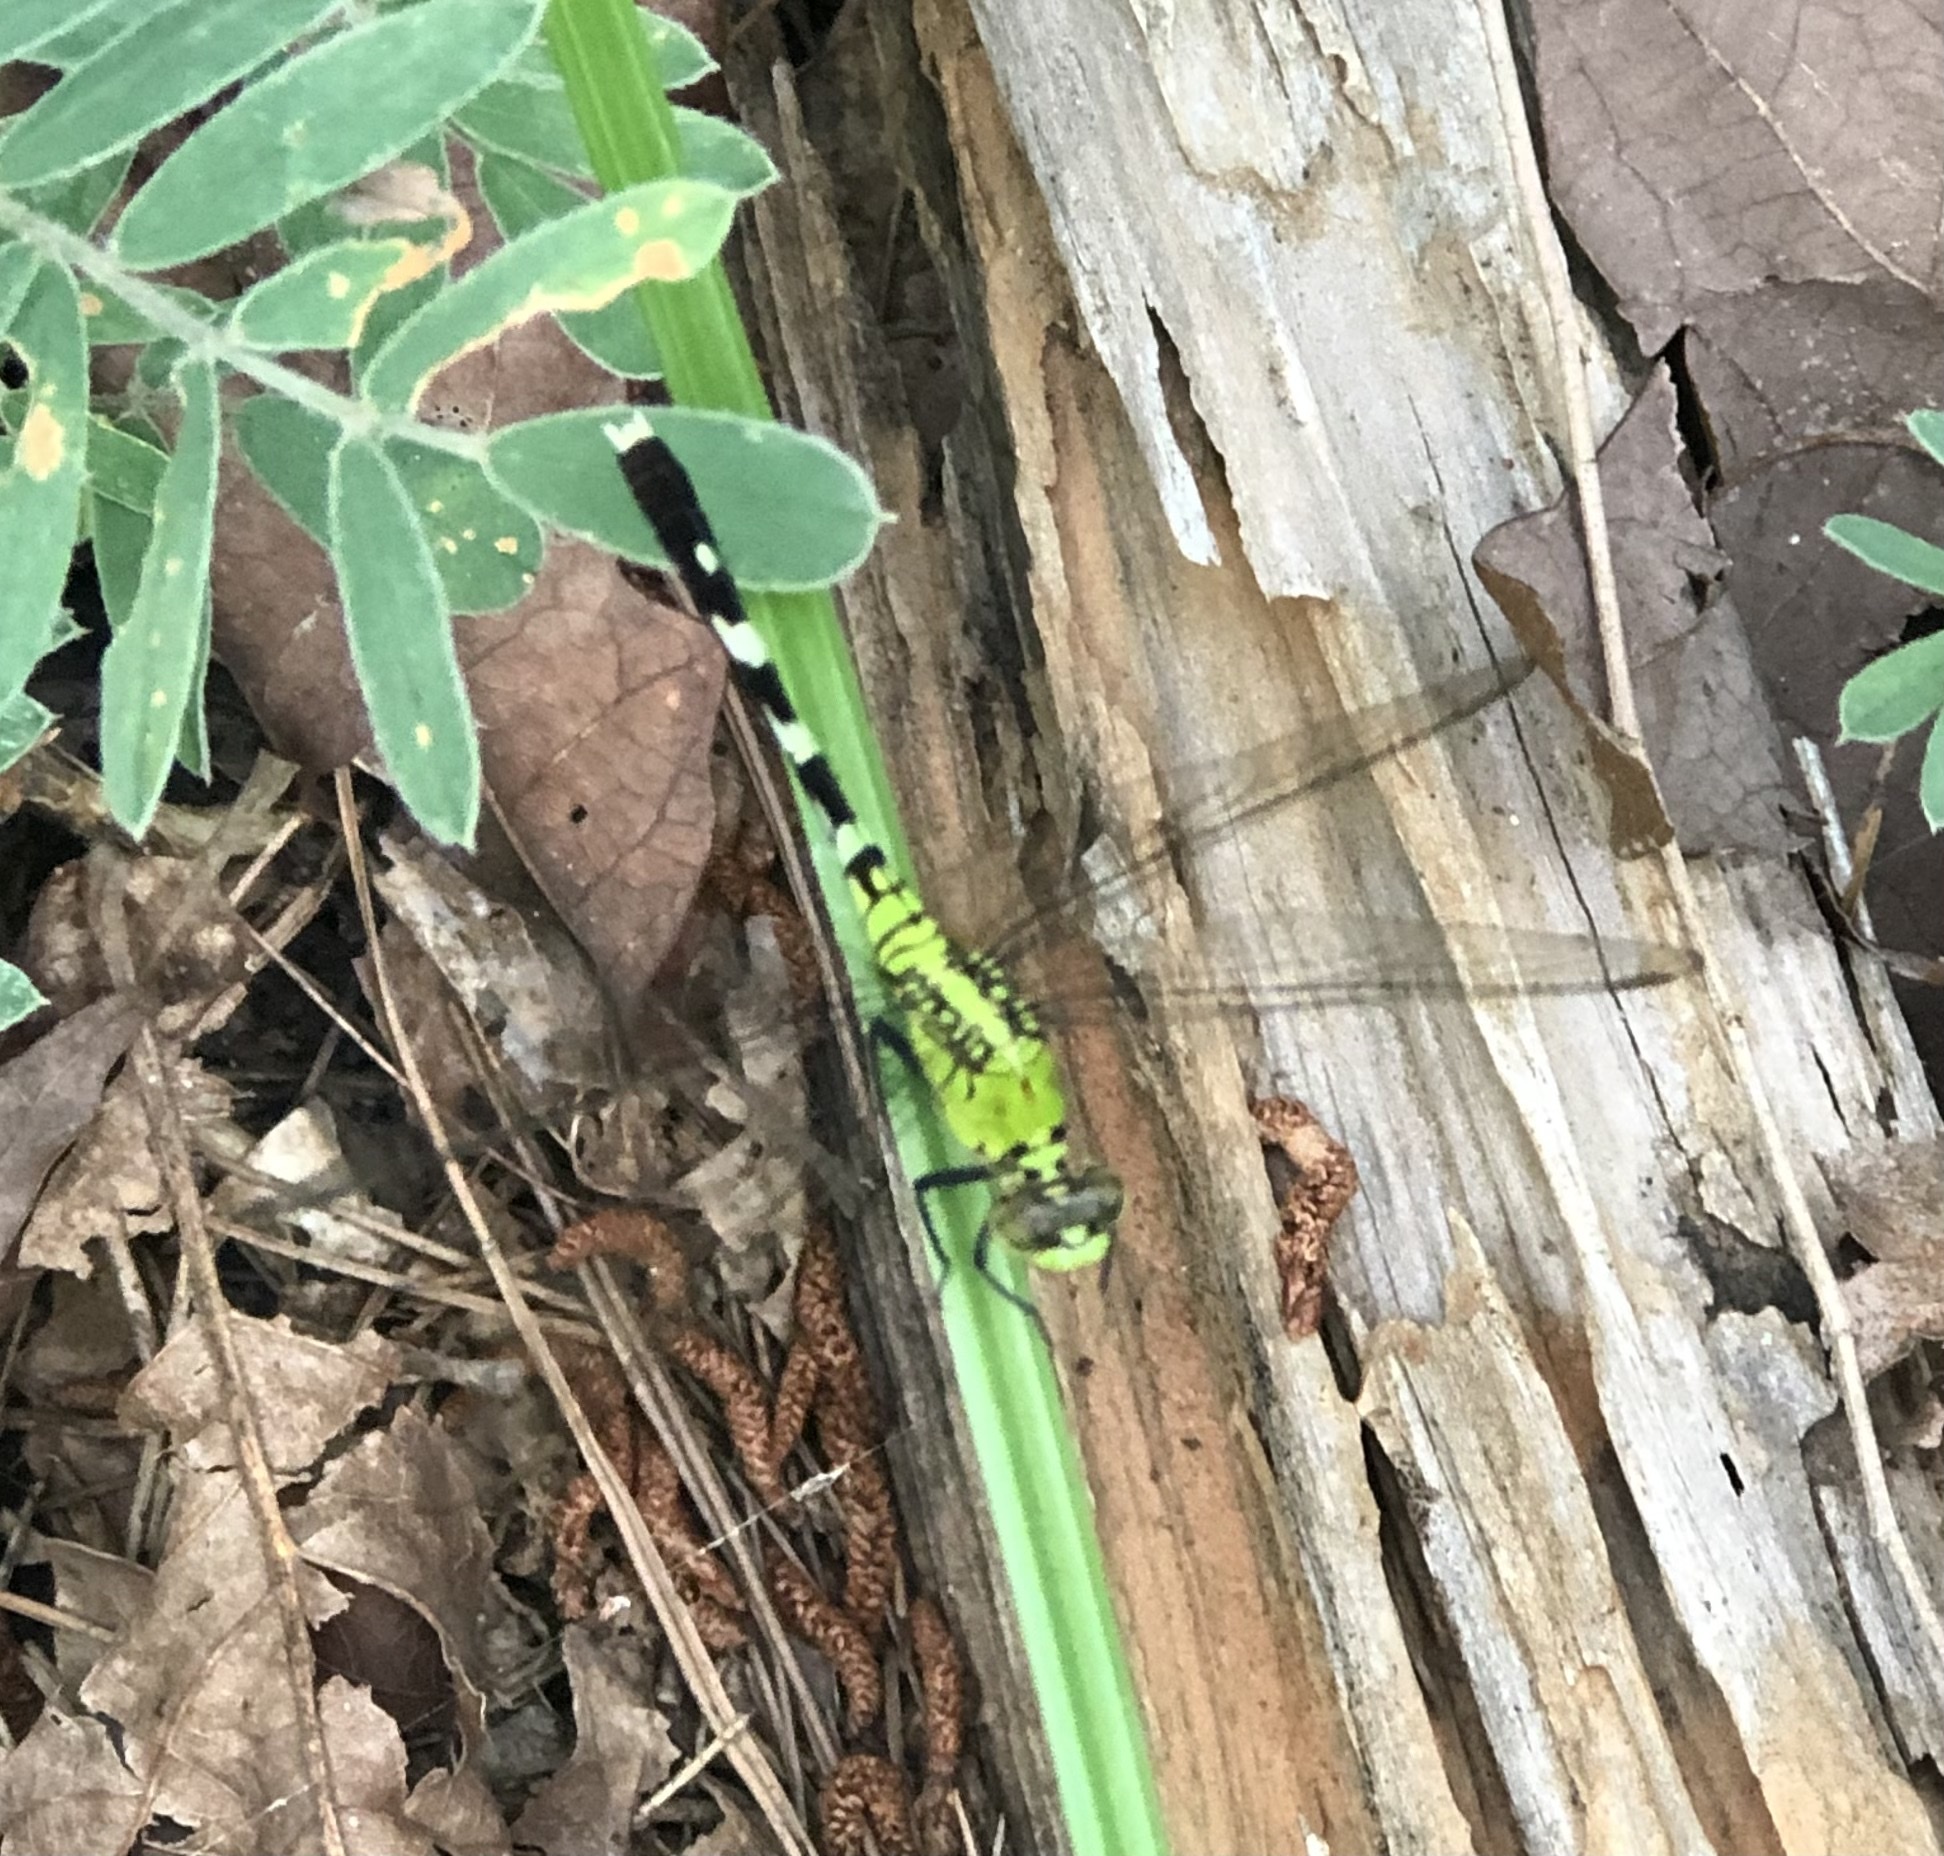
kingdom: Animalia
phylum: Arthropoda
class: Insecta
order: Odonata
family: Libellulidae
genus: Erythemis
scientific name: Erythemis simplicicollis
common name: Eastern pondhawk
